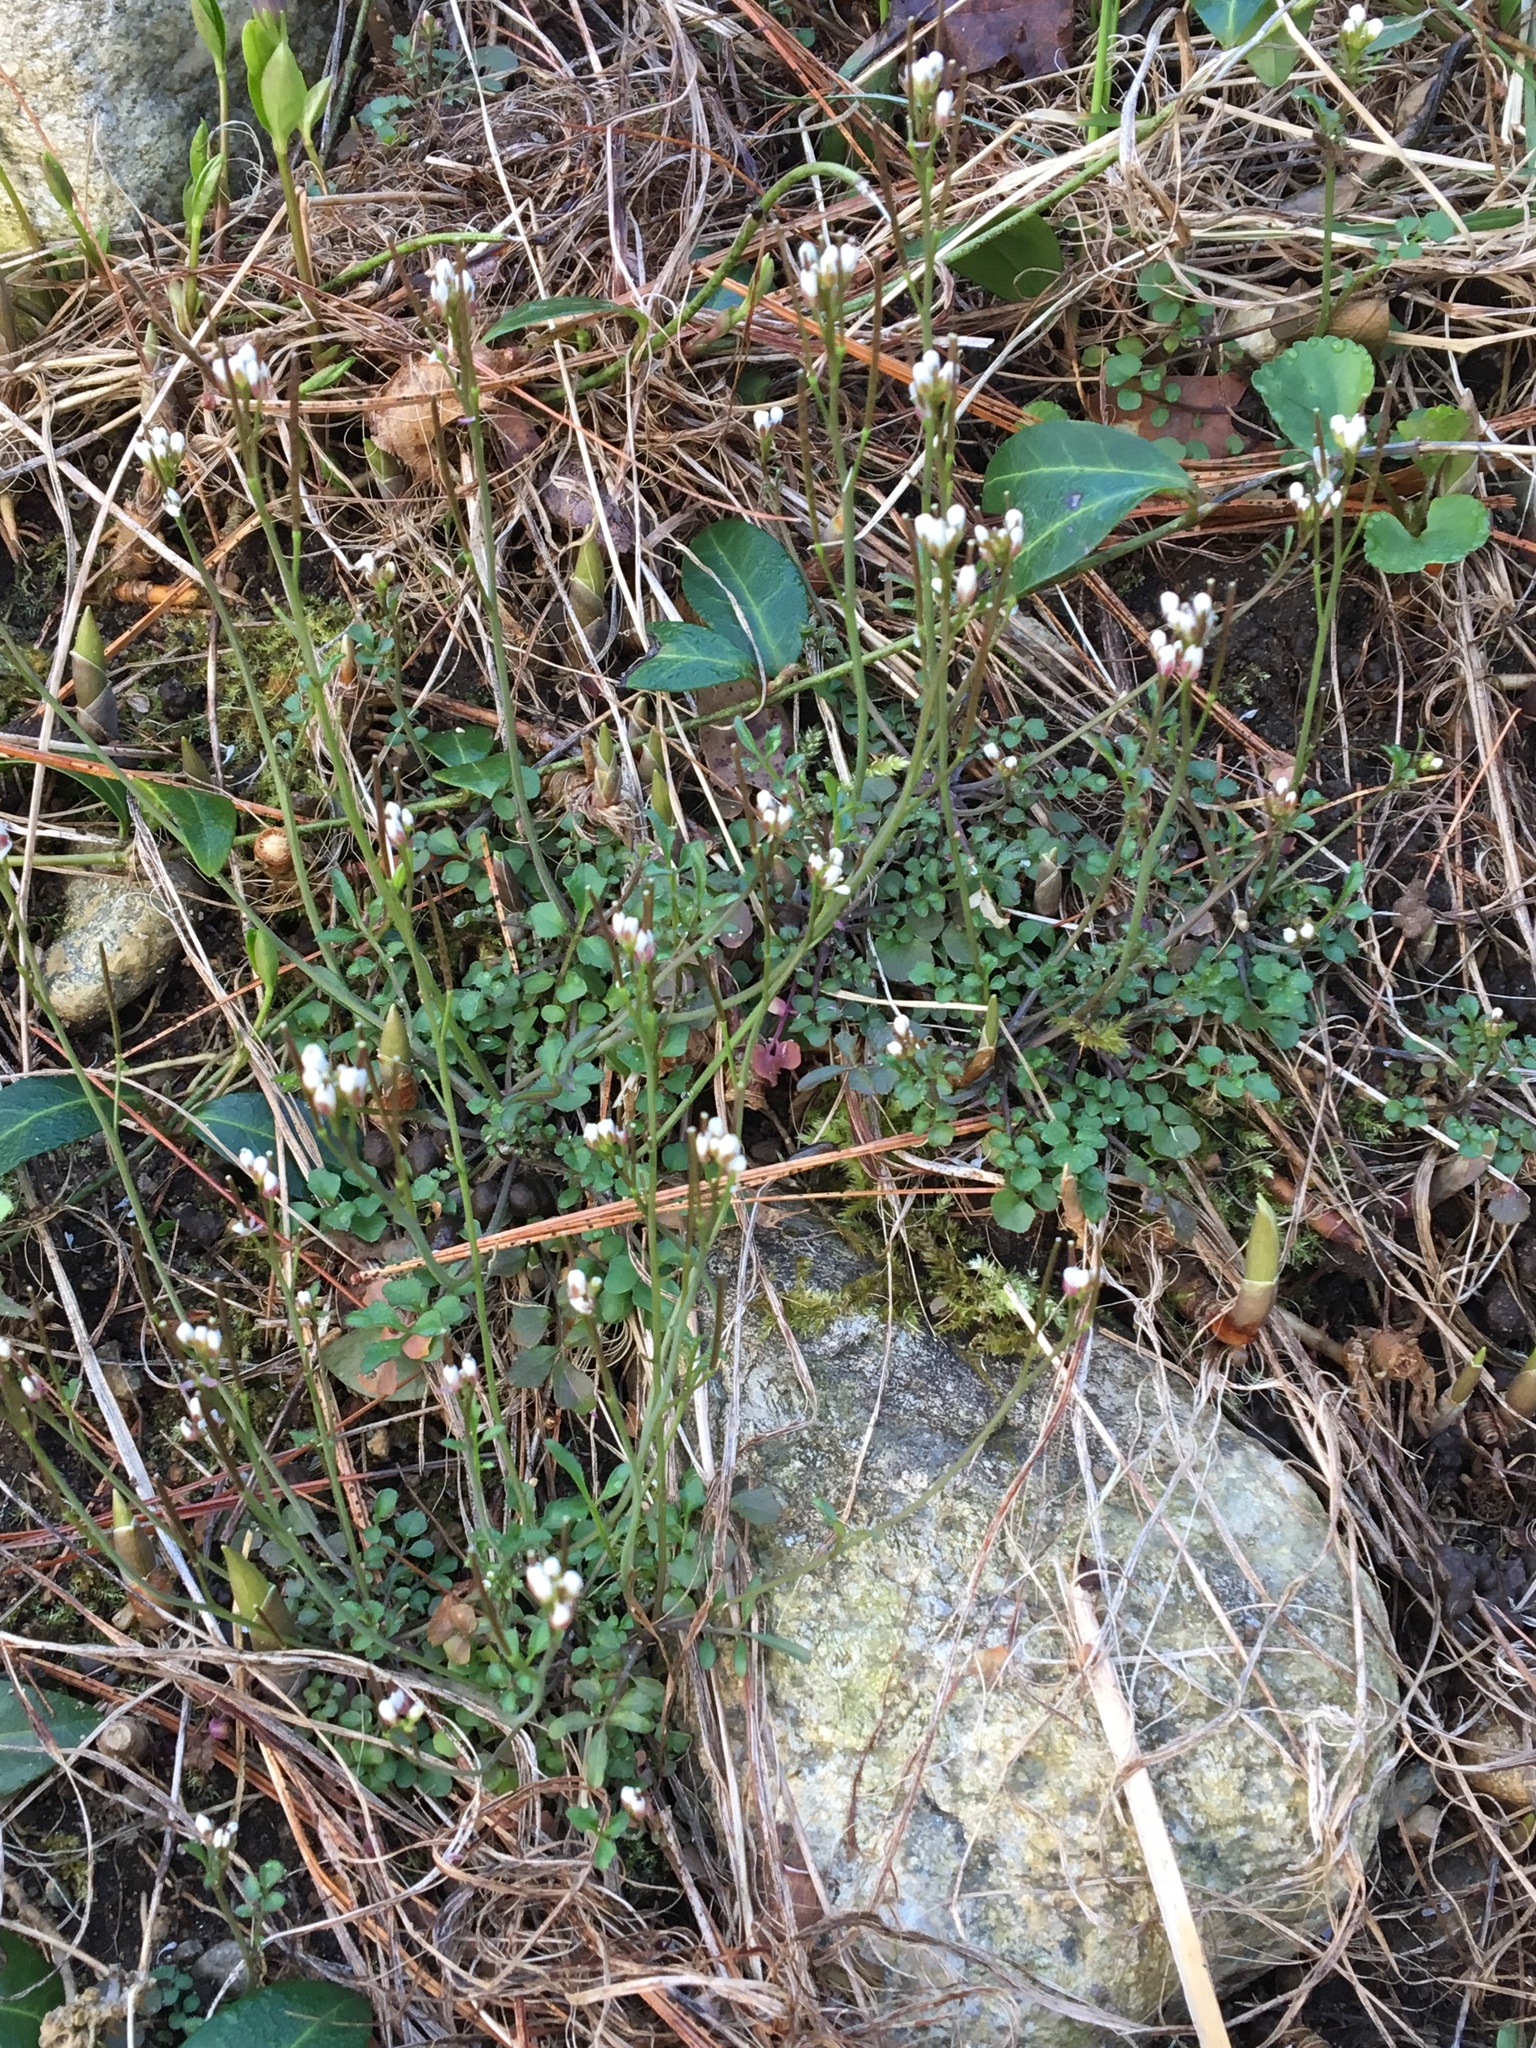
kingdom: Plantae
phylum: Tracheophyta
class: Magnoliopsida
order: Brassicales
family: Brassicaceae
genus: Cardamine
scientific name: Cardamine hirsuta
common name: Hairy bittercress
